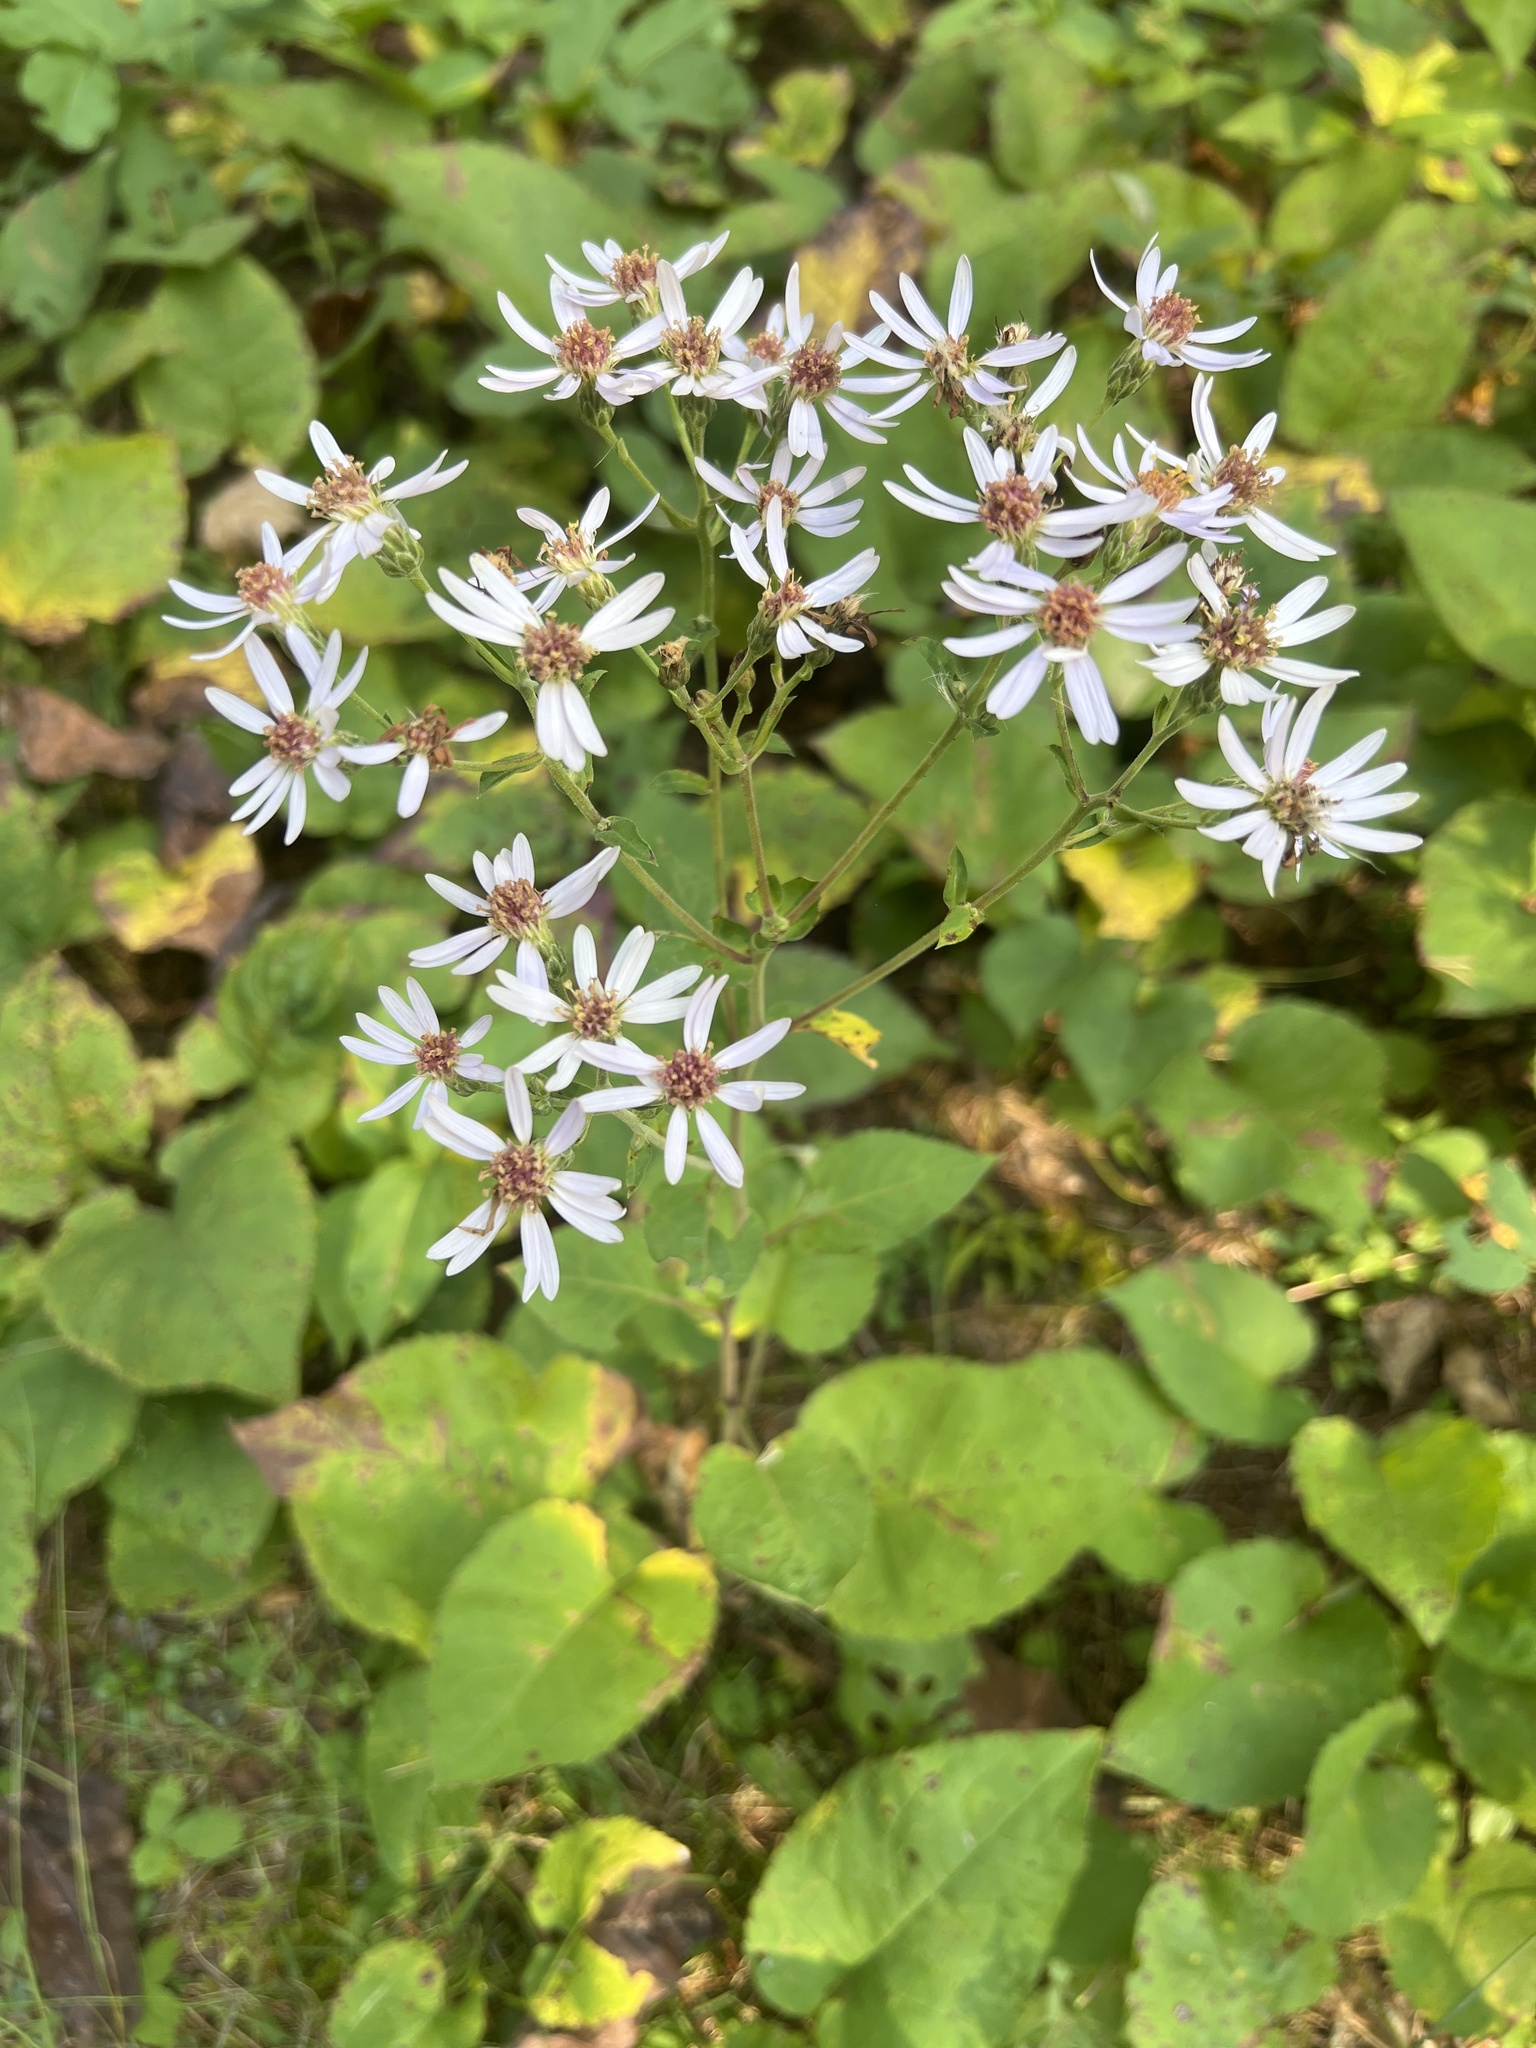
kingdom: Plantae
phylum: Tracheophyta
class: Magnoliopsida
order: Asterales
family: Asteraceae
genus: Eurybia
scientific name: Eurybia macrophylla
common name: Big-leaved aster
